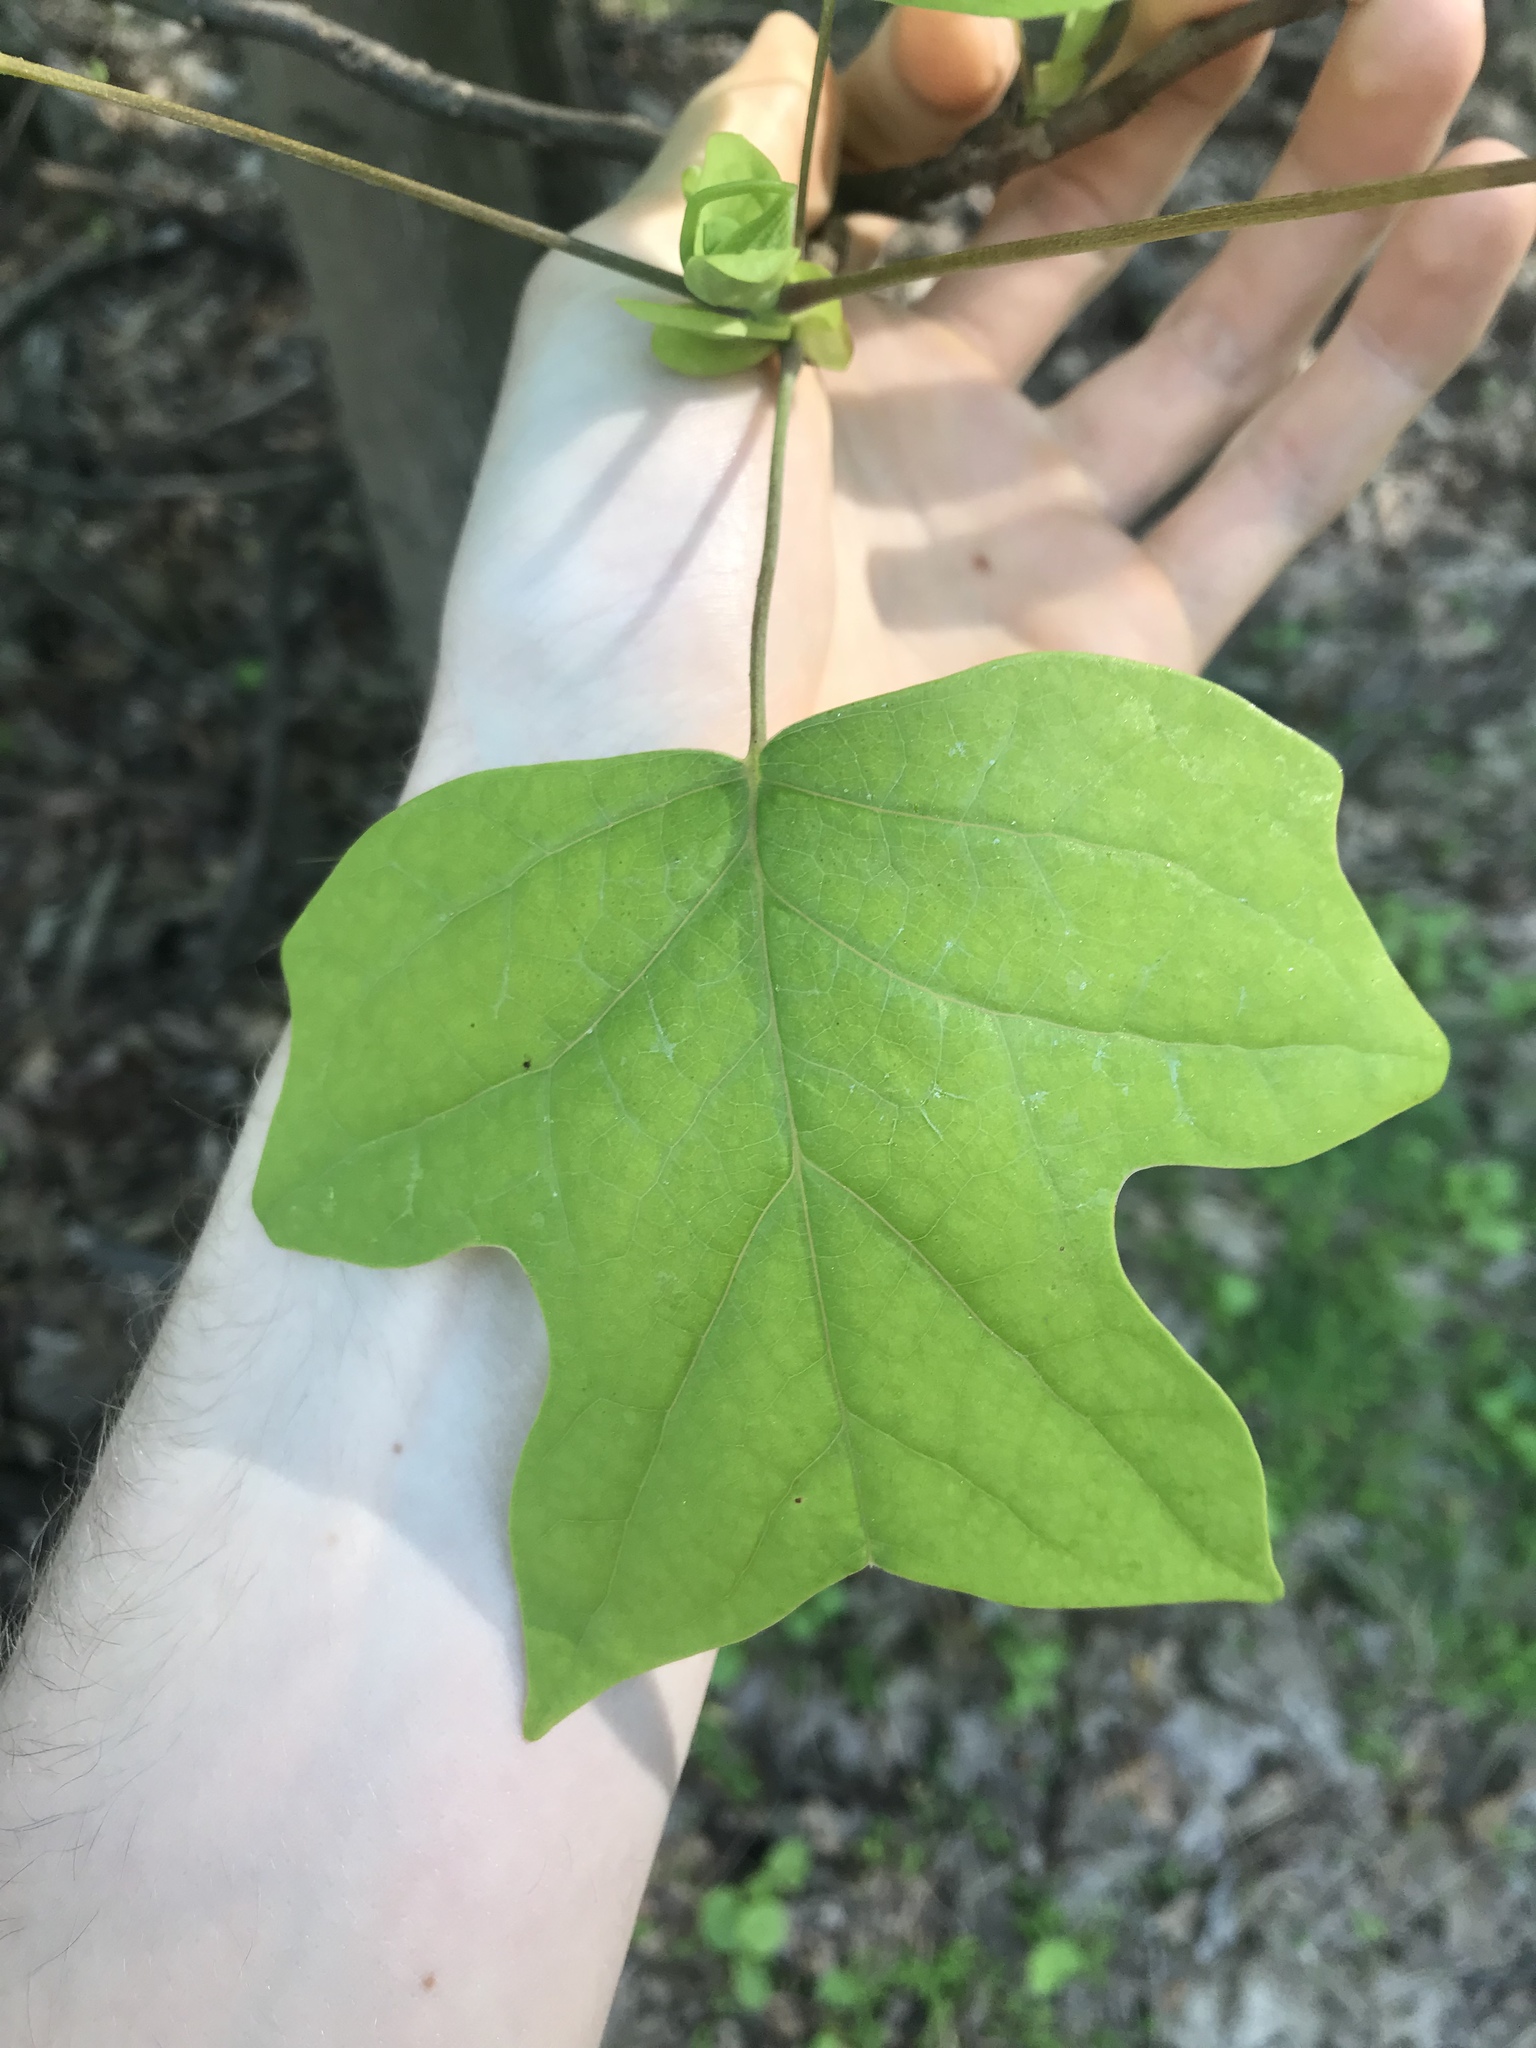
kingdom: Plantae
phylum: Tracheophyta
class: Magnoliopsida
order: Magnoliales
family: Magnoliaceae
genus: Liriodendron
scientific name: Liriodendron tulipifera
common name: Tulip tree
